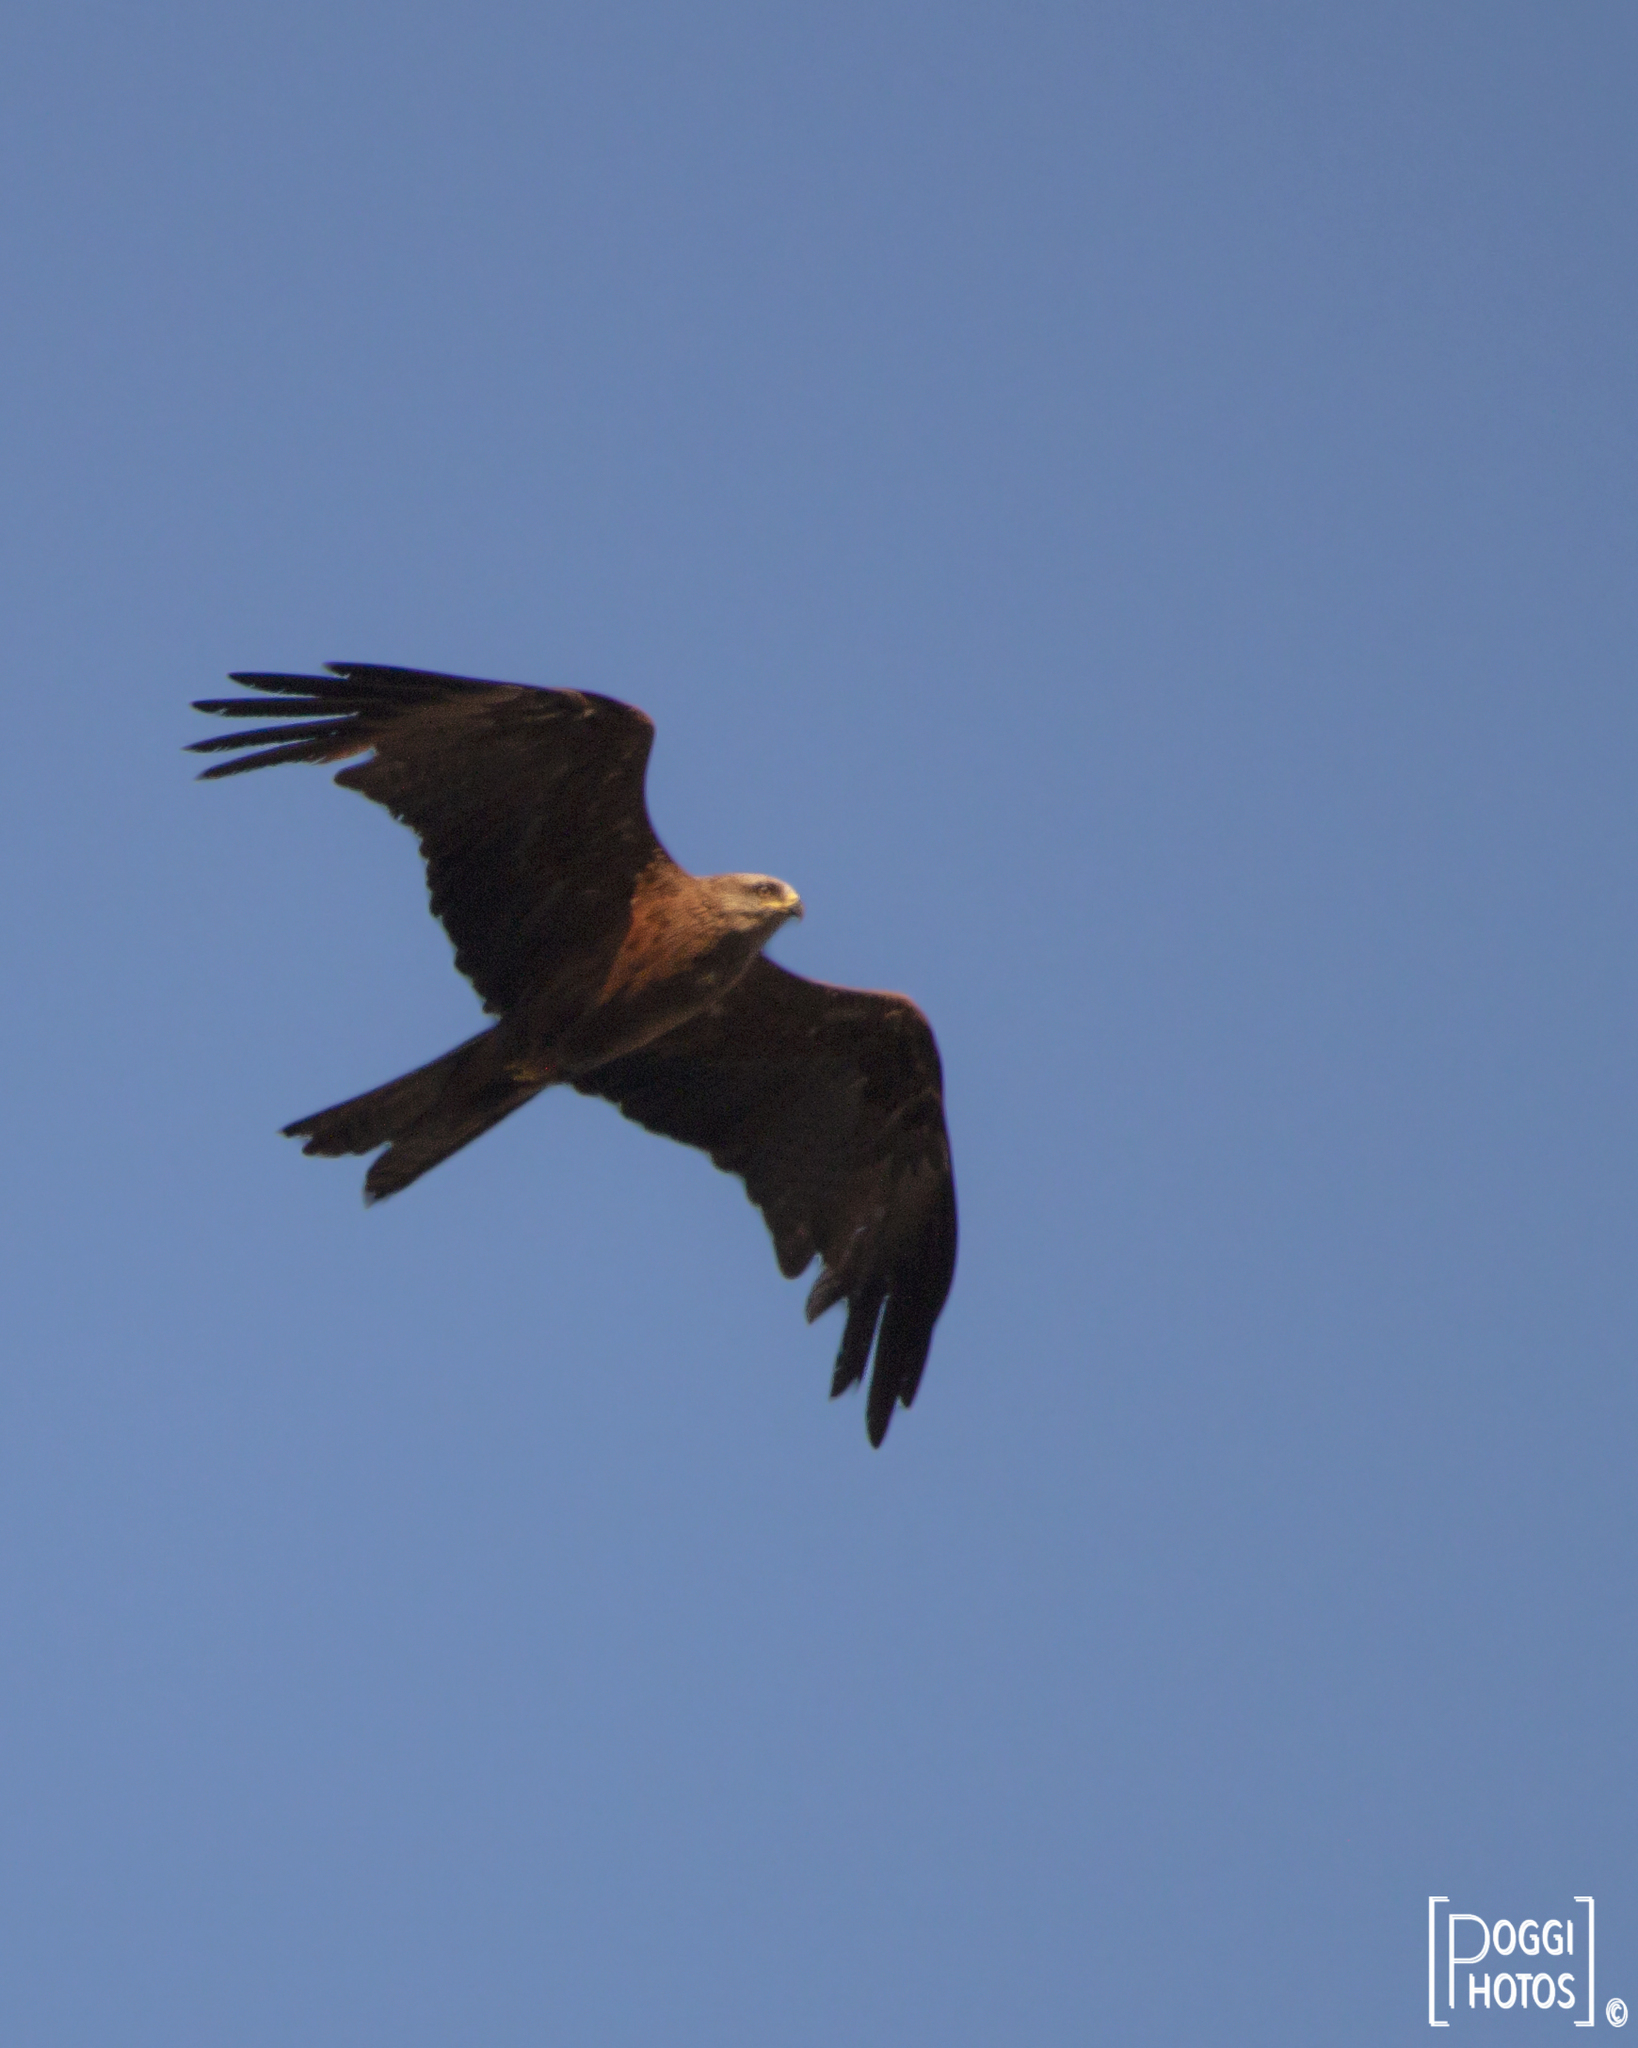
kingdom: Animalia
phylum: Chordata
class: Aves
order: Accipitriformes
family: Accipitridae
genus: Milvus
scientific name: Milvus migrans
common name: Black kite
